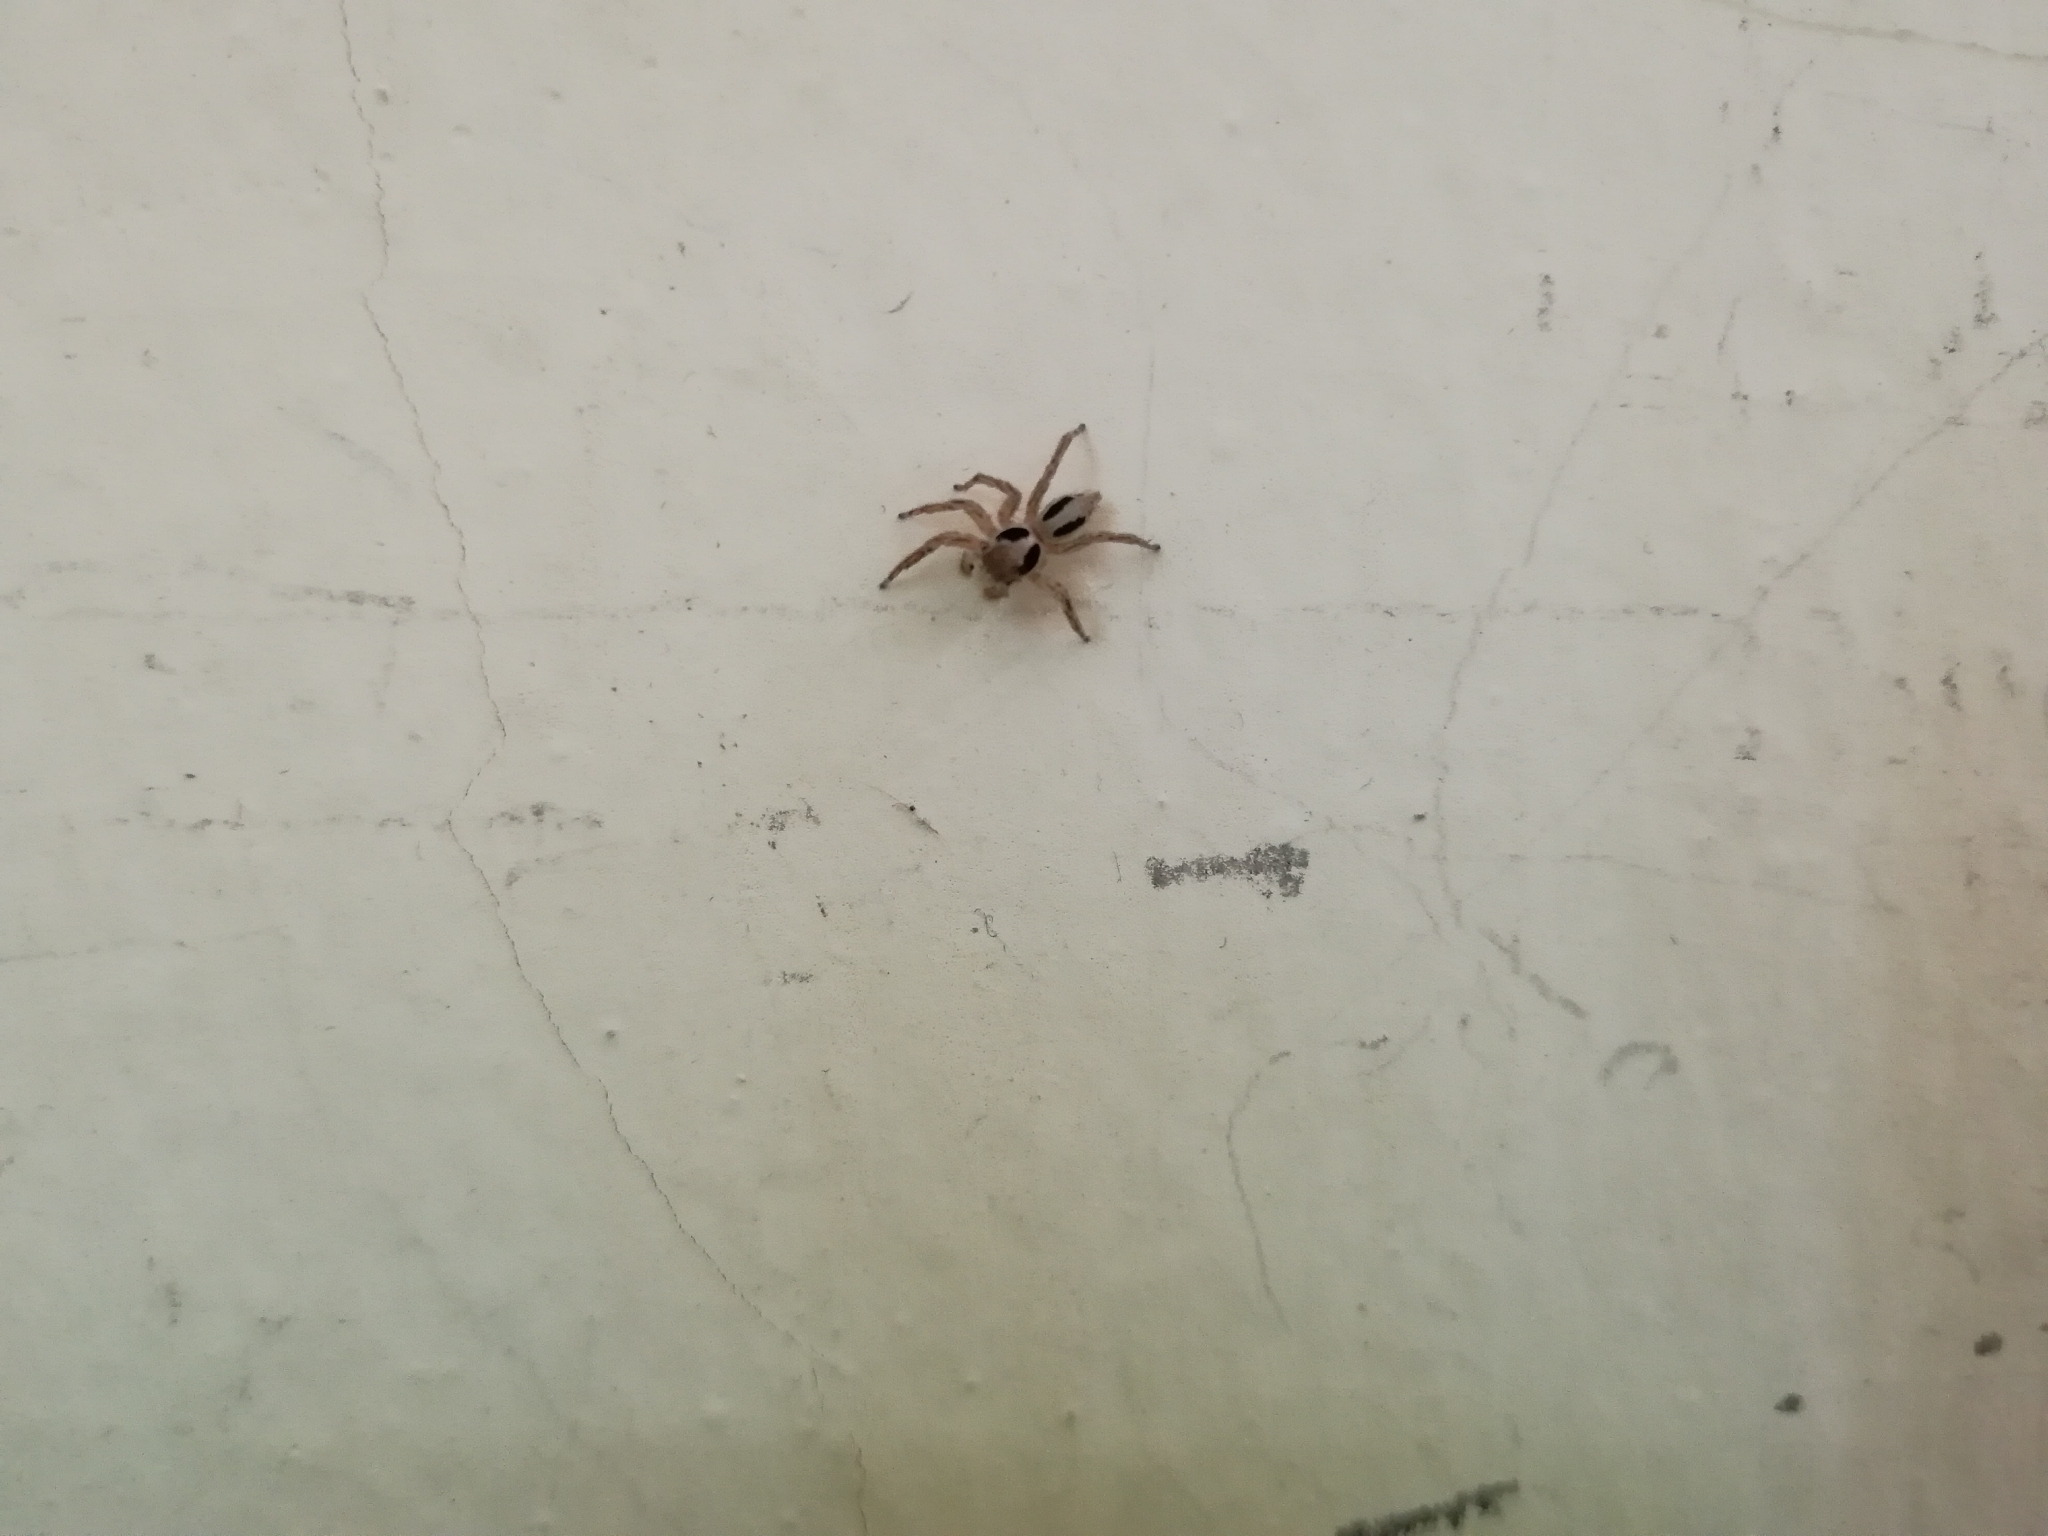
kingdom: Animalia
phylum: Arthropoda
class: Arachnida
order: Araneae
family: Salticidae
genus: Plexippus
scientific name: Plexippus petersi
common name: Jumping spider
